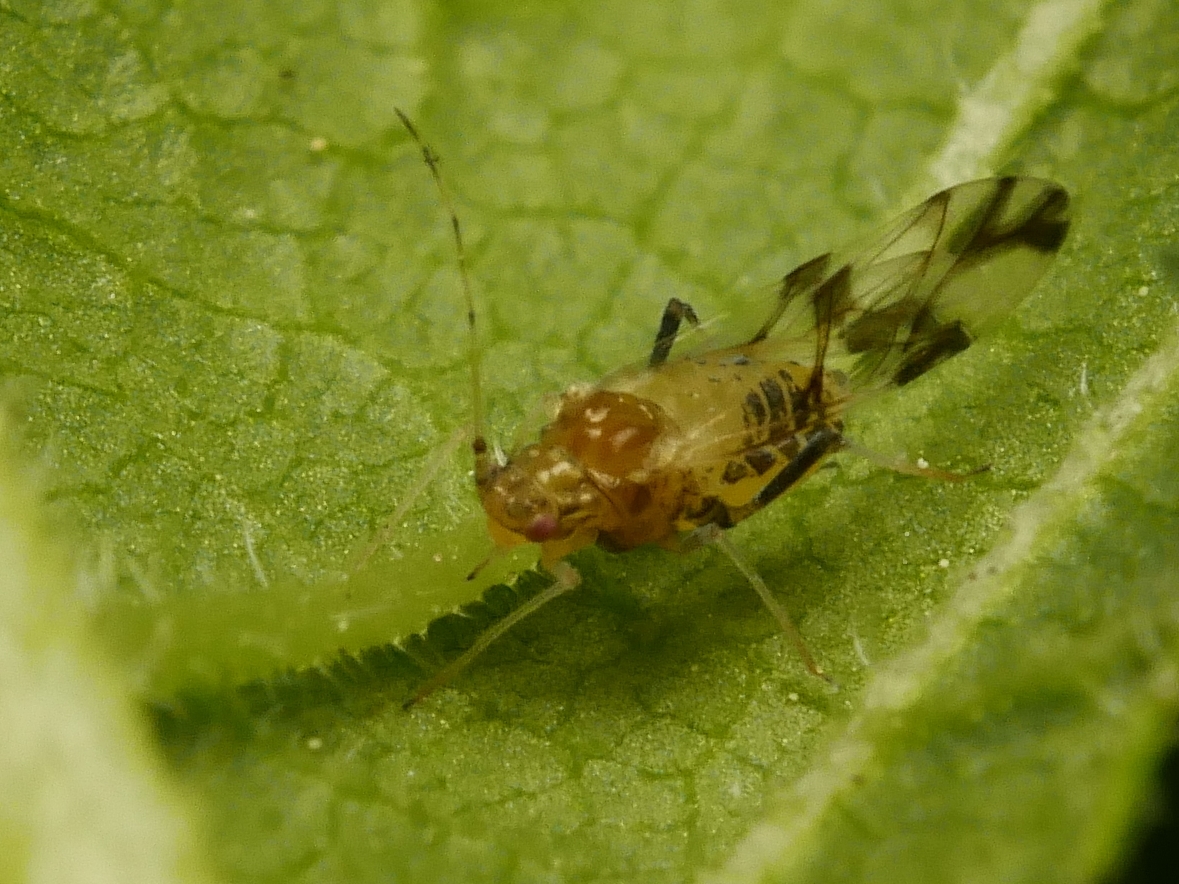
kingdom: Animalia
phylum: Arthropoda
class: Insecta
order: Hemiptera
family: Aphididae
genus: Tinocallis
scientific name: Tinocallis platani
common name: Elm aphid
